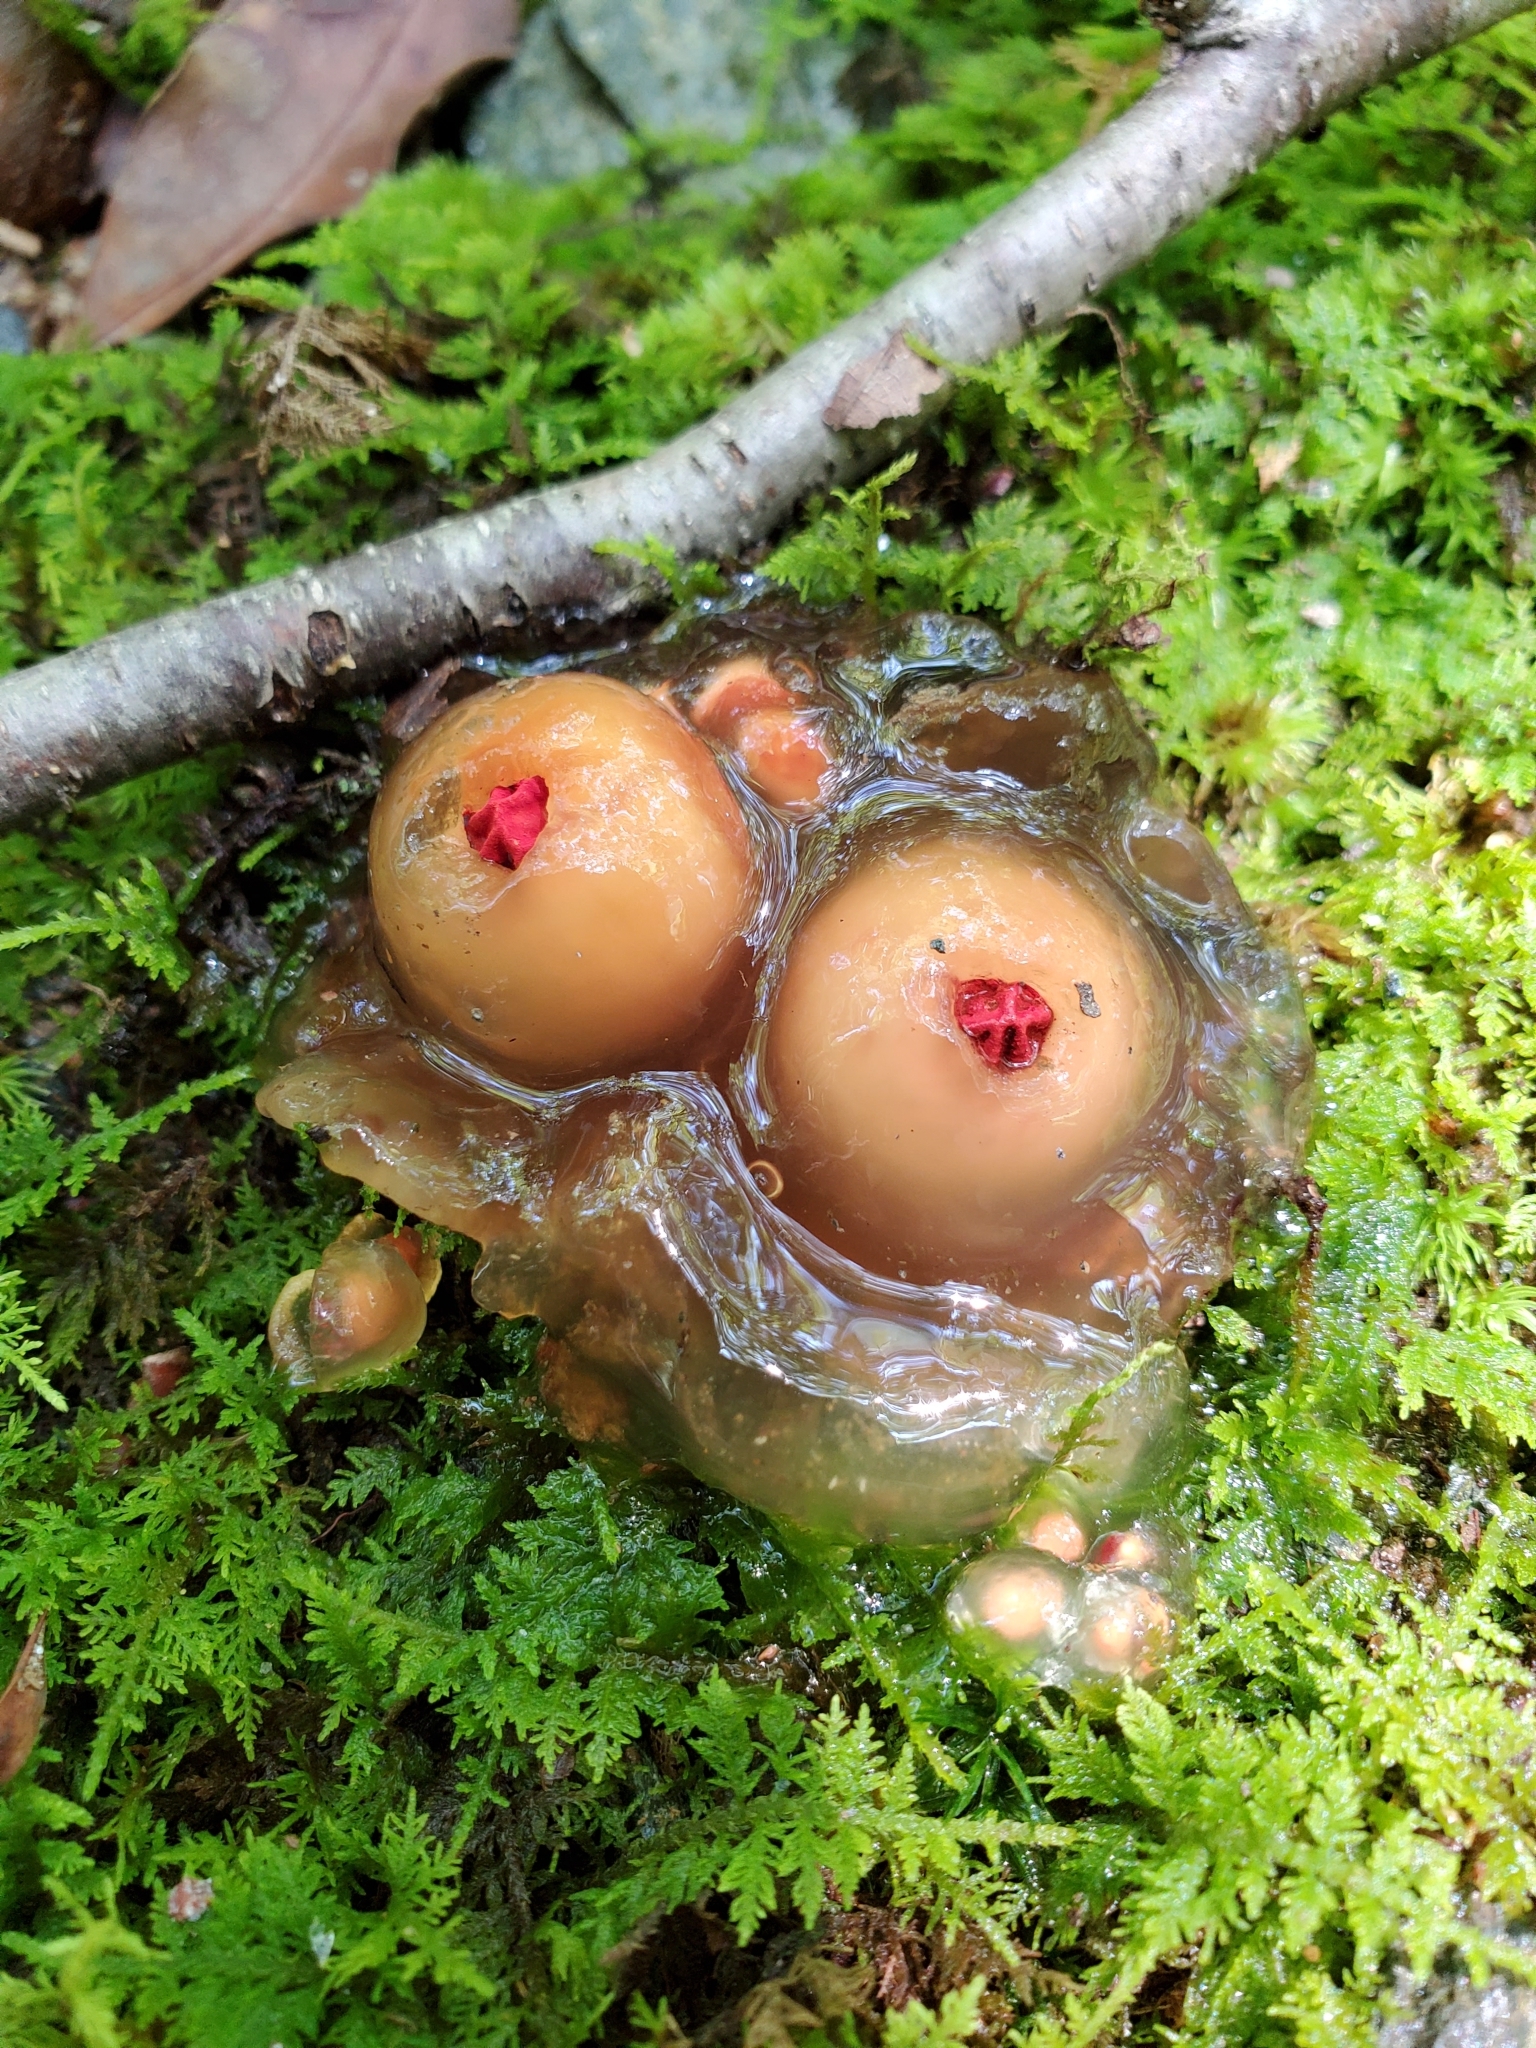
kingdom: Fungi
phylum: Basidiomycota
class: Agaricomycetes
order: Boletales
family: Calostomataceae
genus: Calostoma
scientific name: Calostoma cinnabarinum
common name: Stalked puffball-in-aspic
